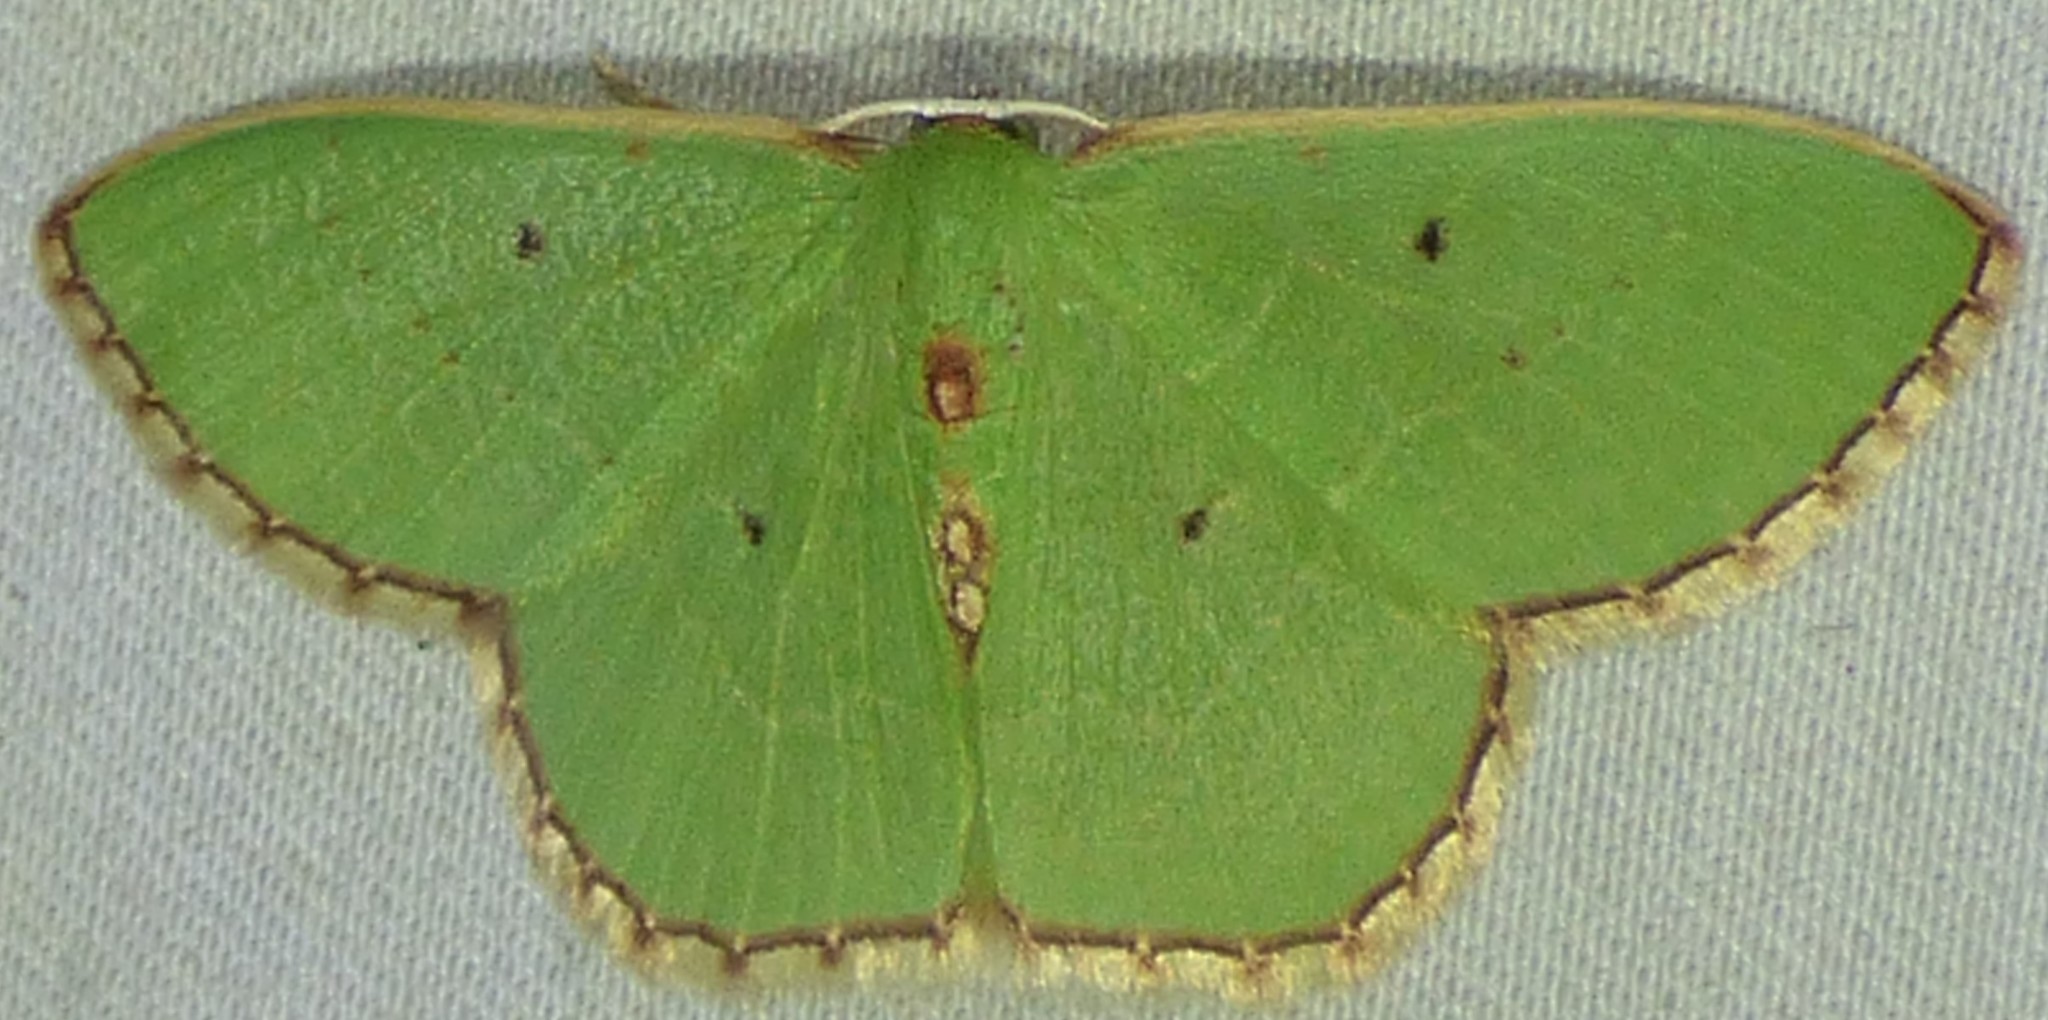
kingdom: Animalia
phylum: Arthropoda
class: Insecta
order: Lepidoptera
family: Geometridae
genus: Nemoria
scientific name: Nemoria lixaria
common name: Red-bordered emerald
